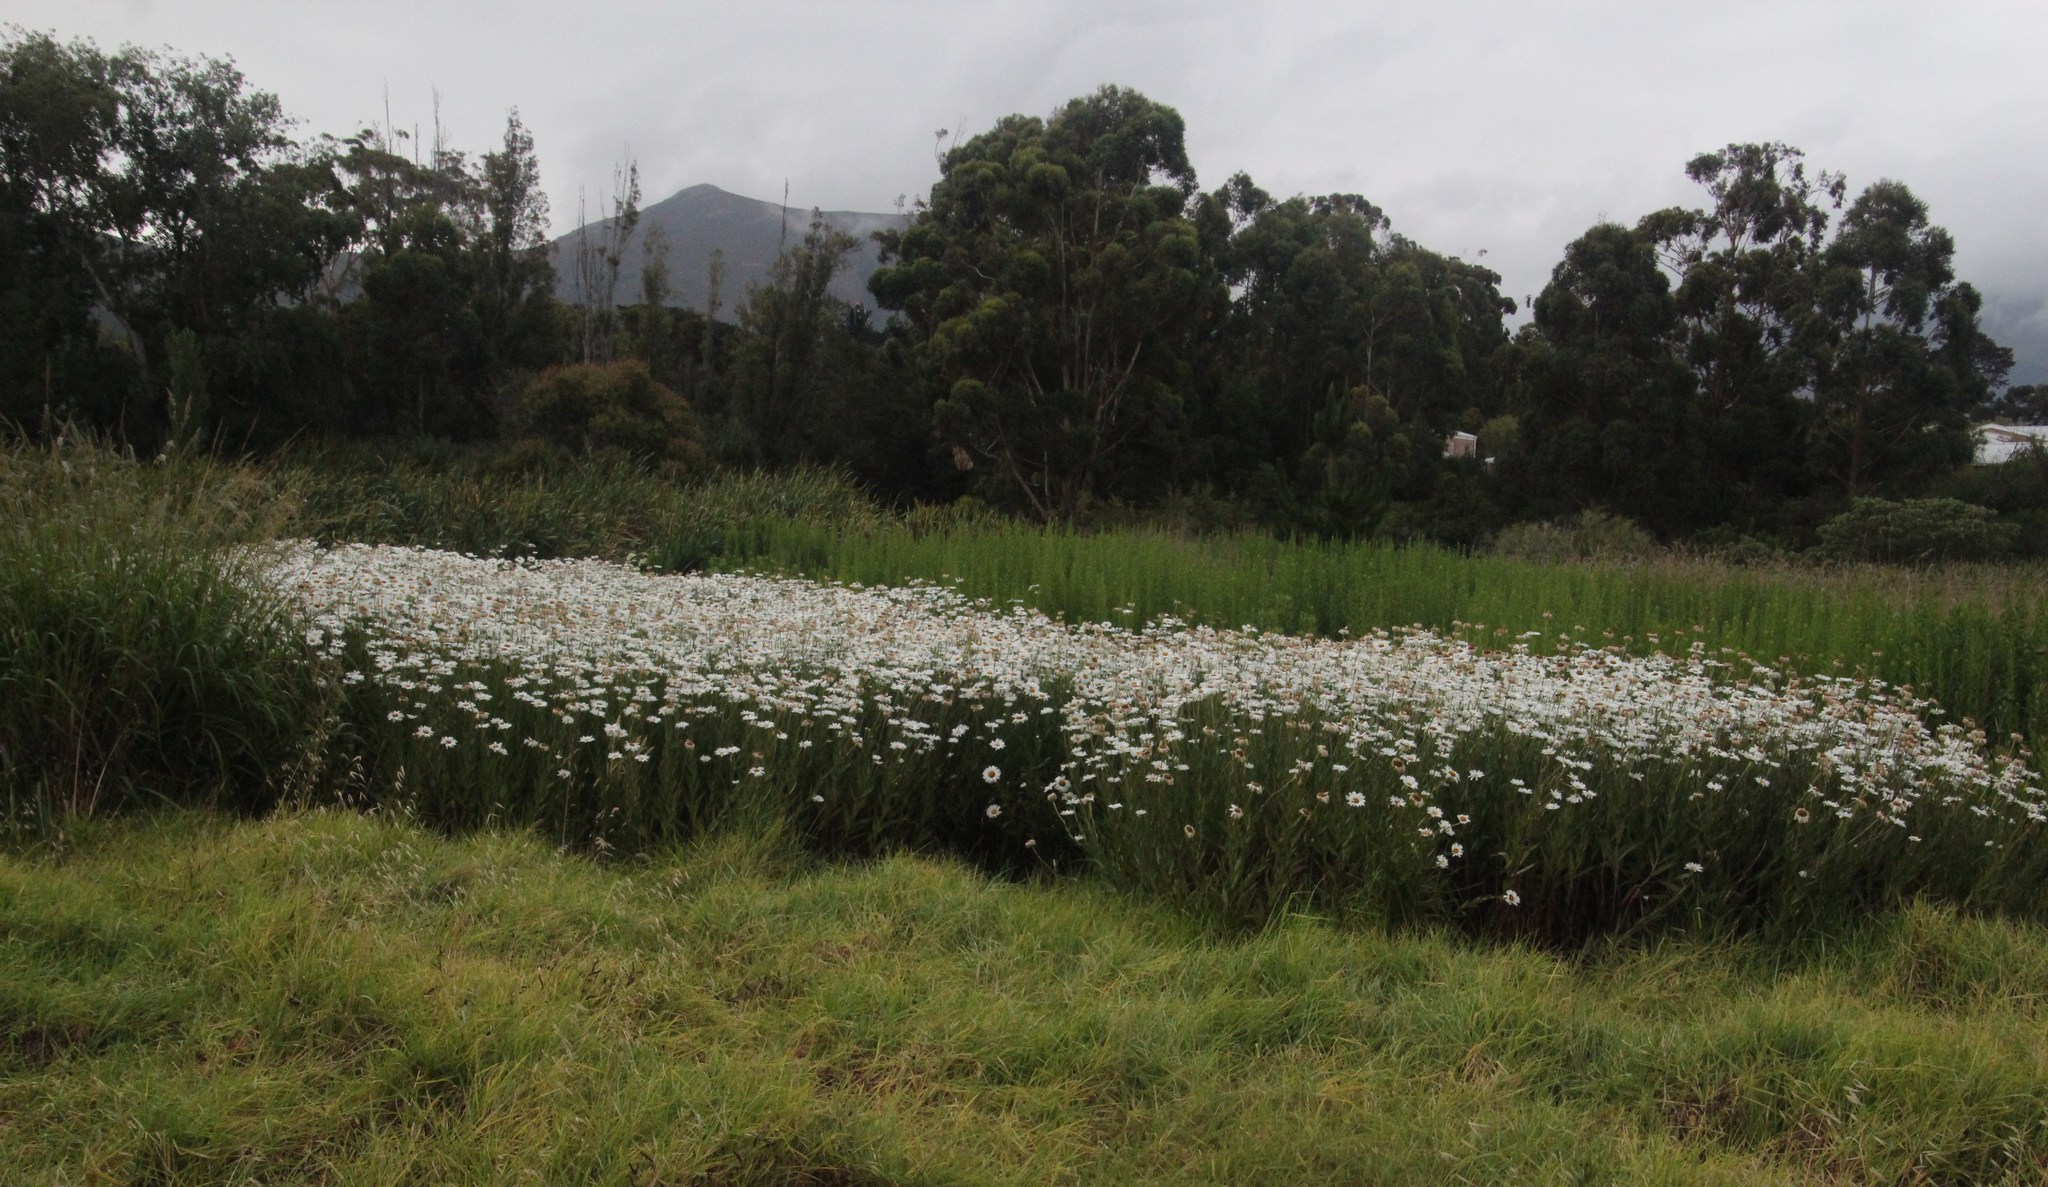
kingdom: Plantae
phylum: Tracheophyta
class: Magnoliopsida
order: Asterales
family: Asteraceae
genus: Leucanthemum
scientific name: Leucanthemum maximum
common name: Max chrysanthemum
